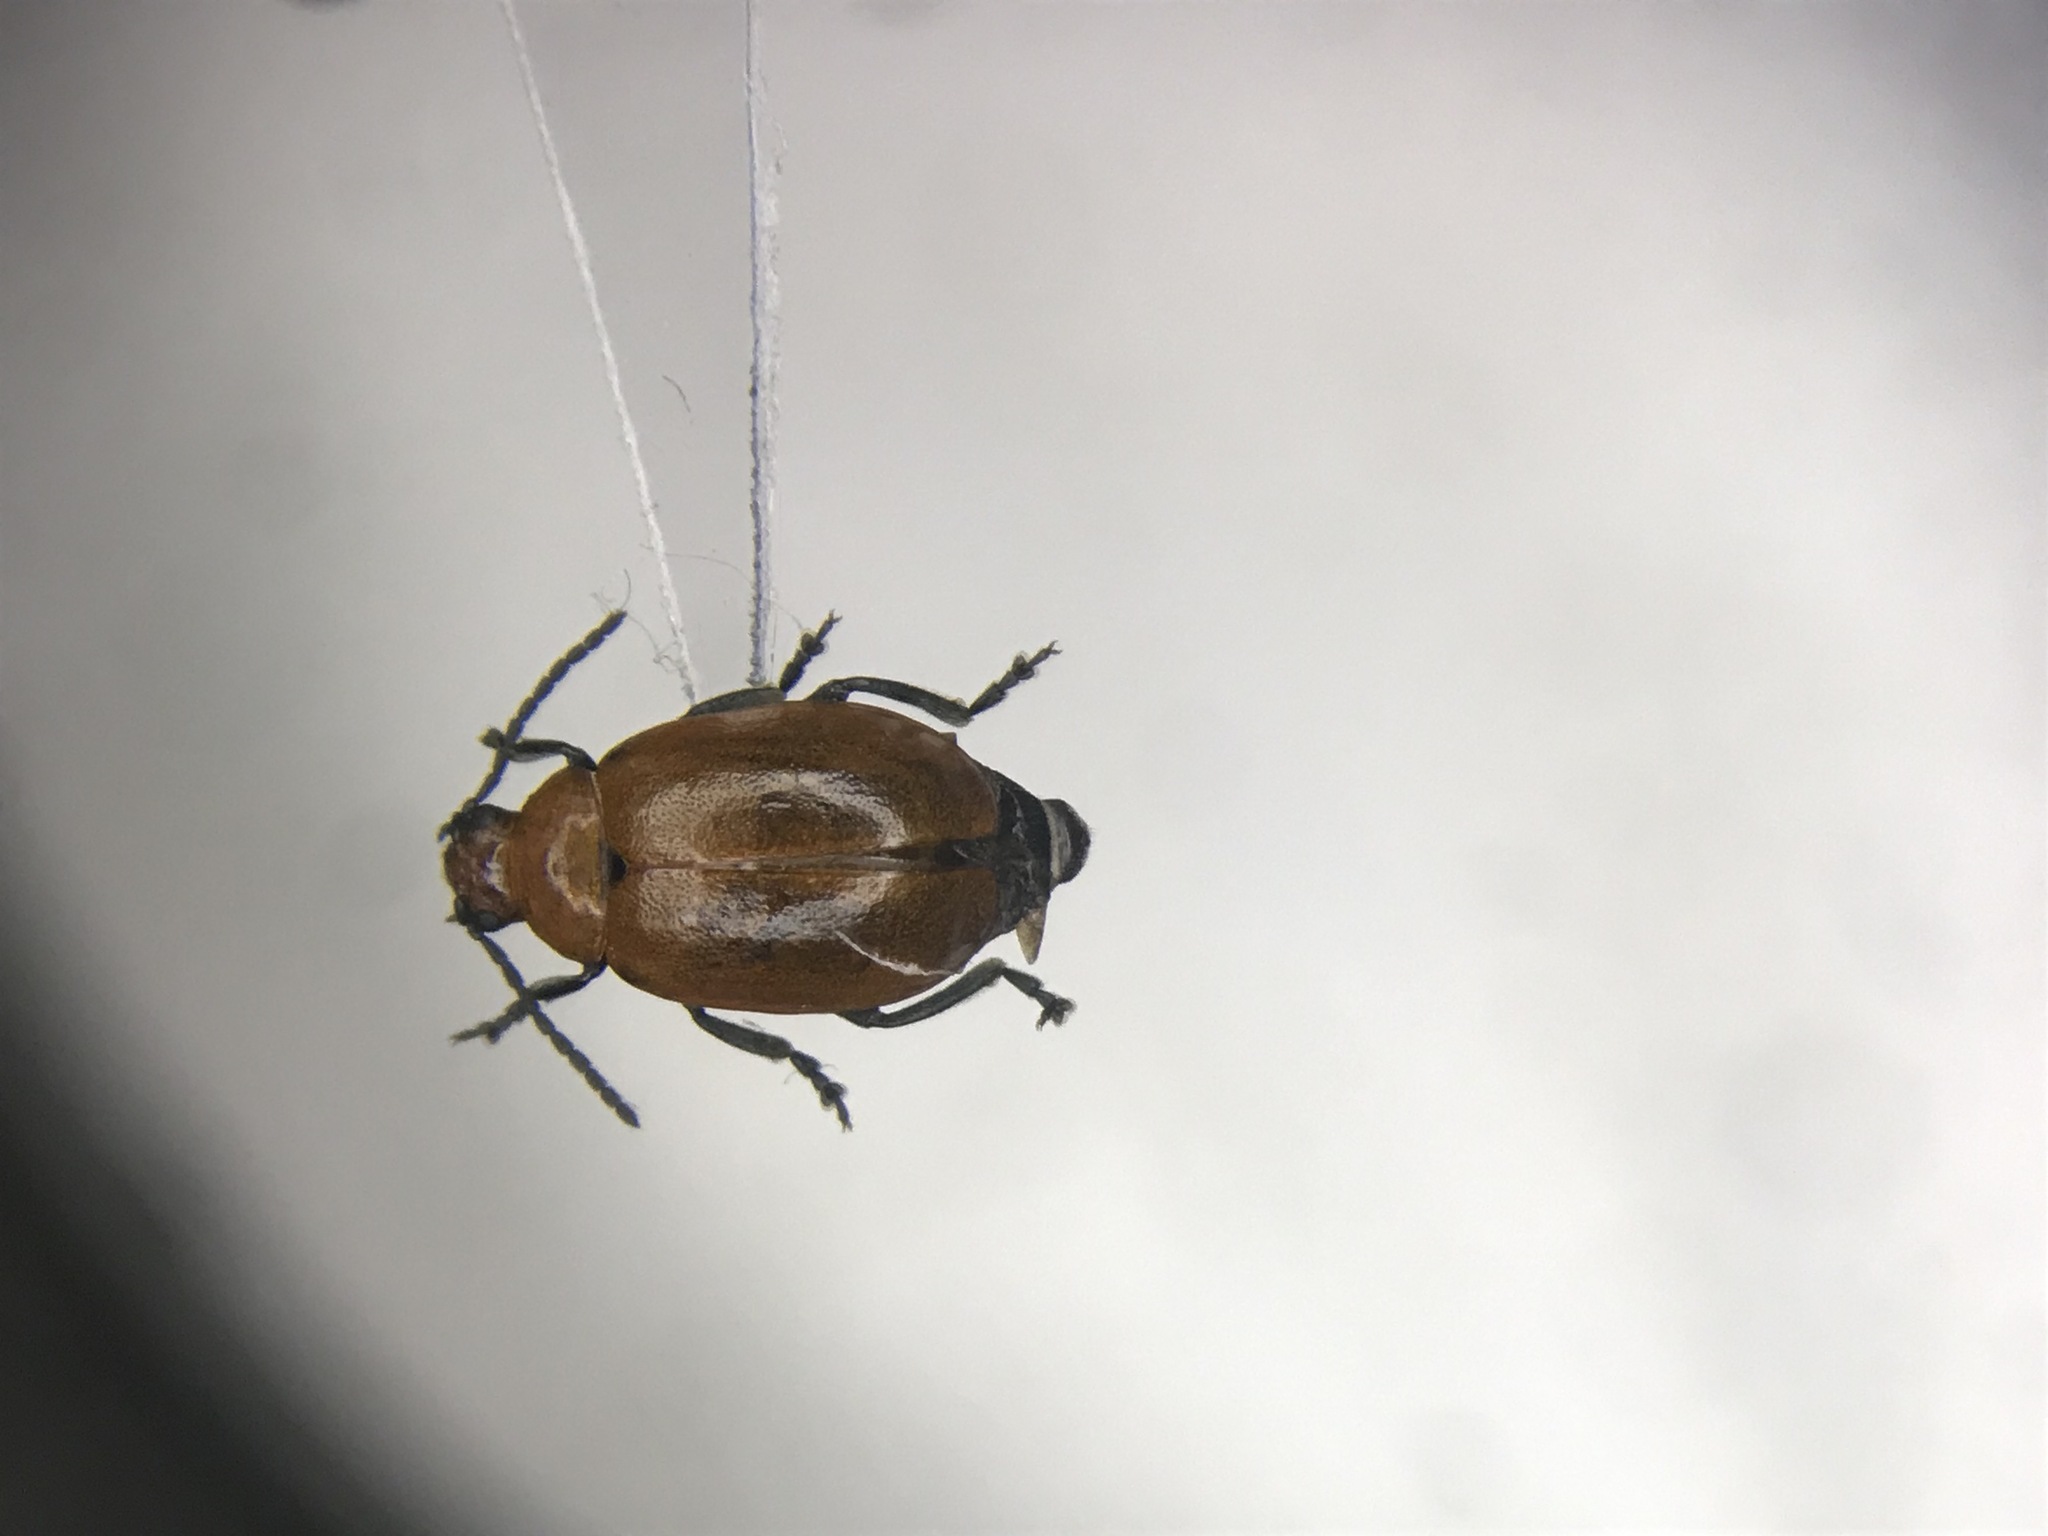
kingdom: Animalia
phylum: Arthropoda
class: Insecta
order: Coleoptera
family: Chrysomelidae
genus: Strabala
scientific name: Strabala rufa
